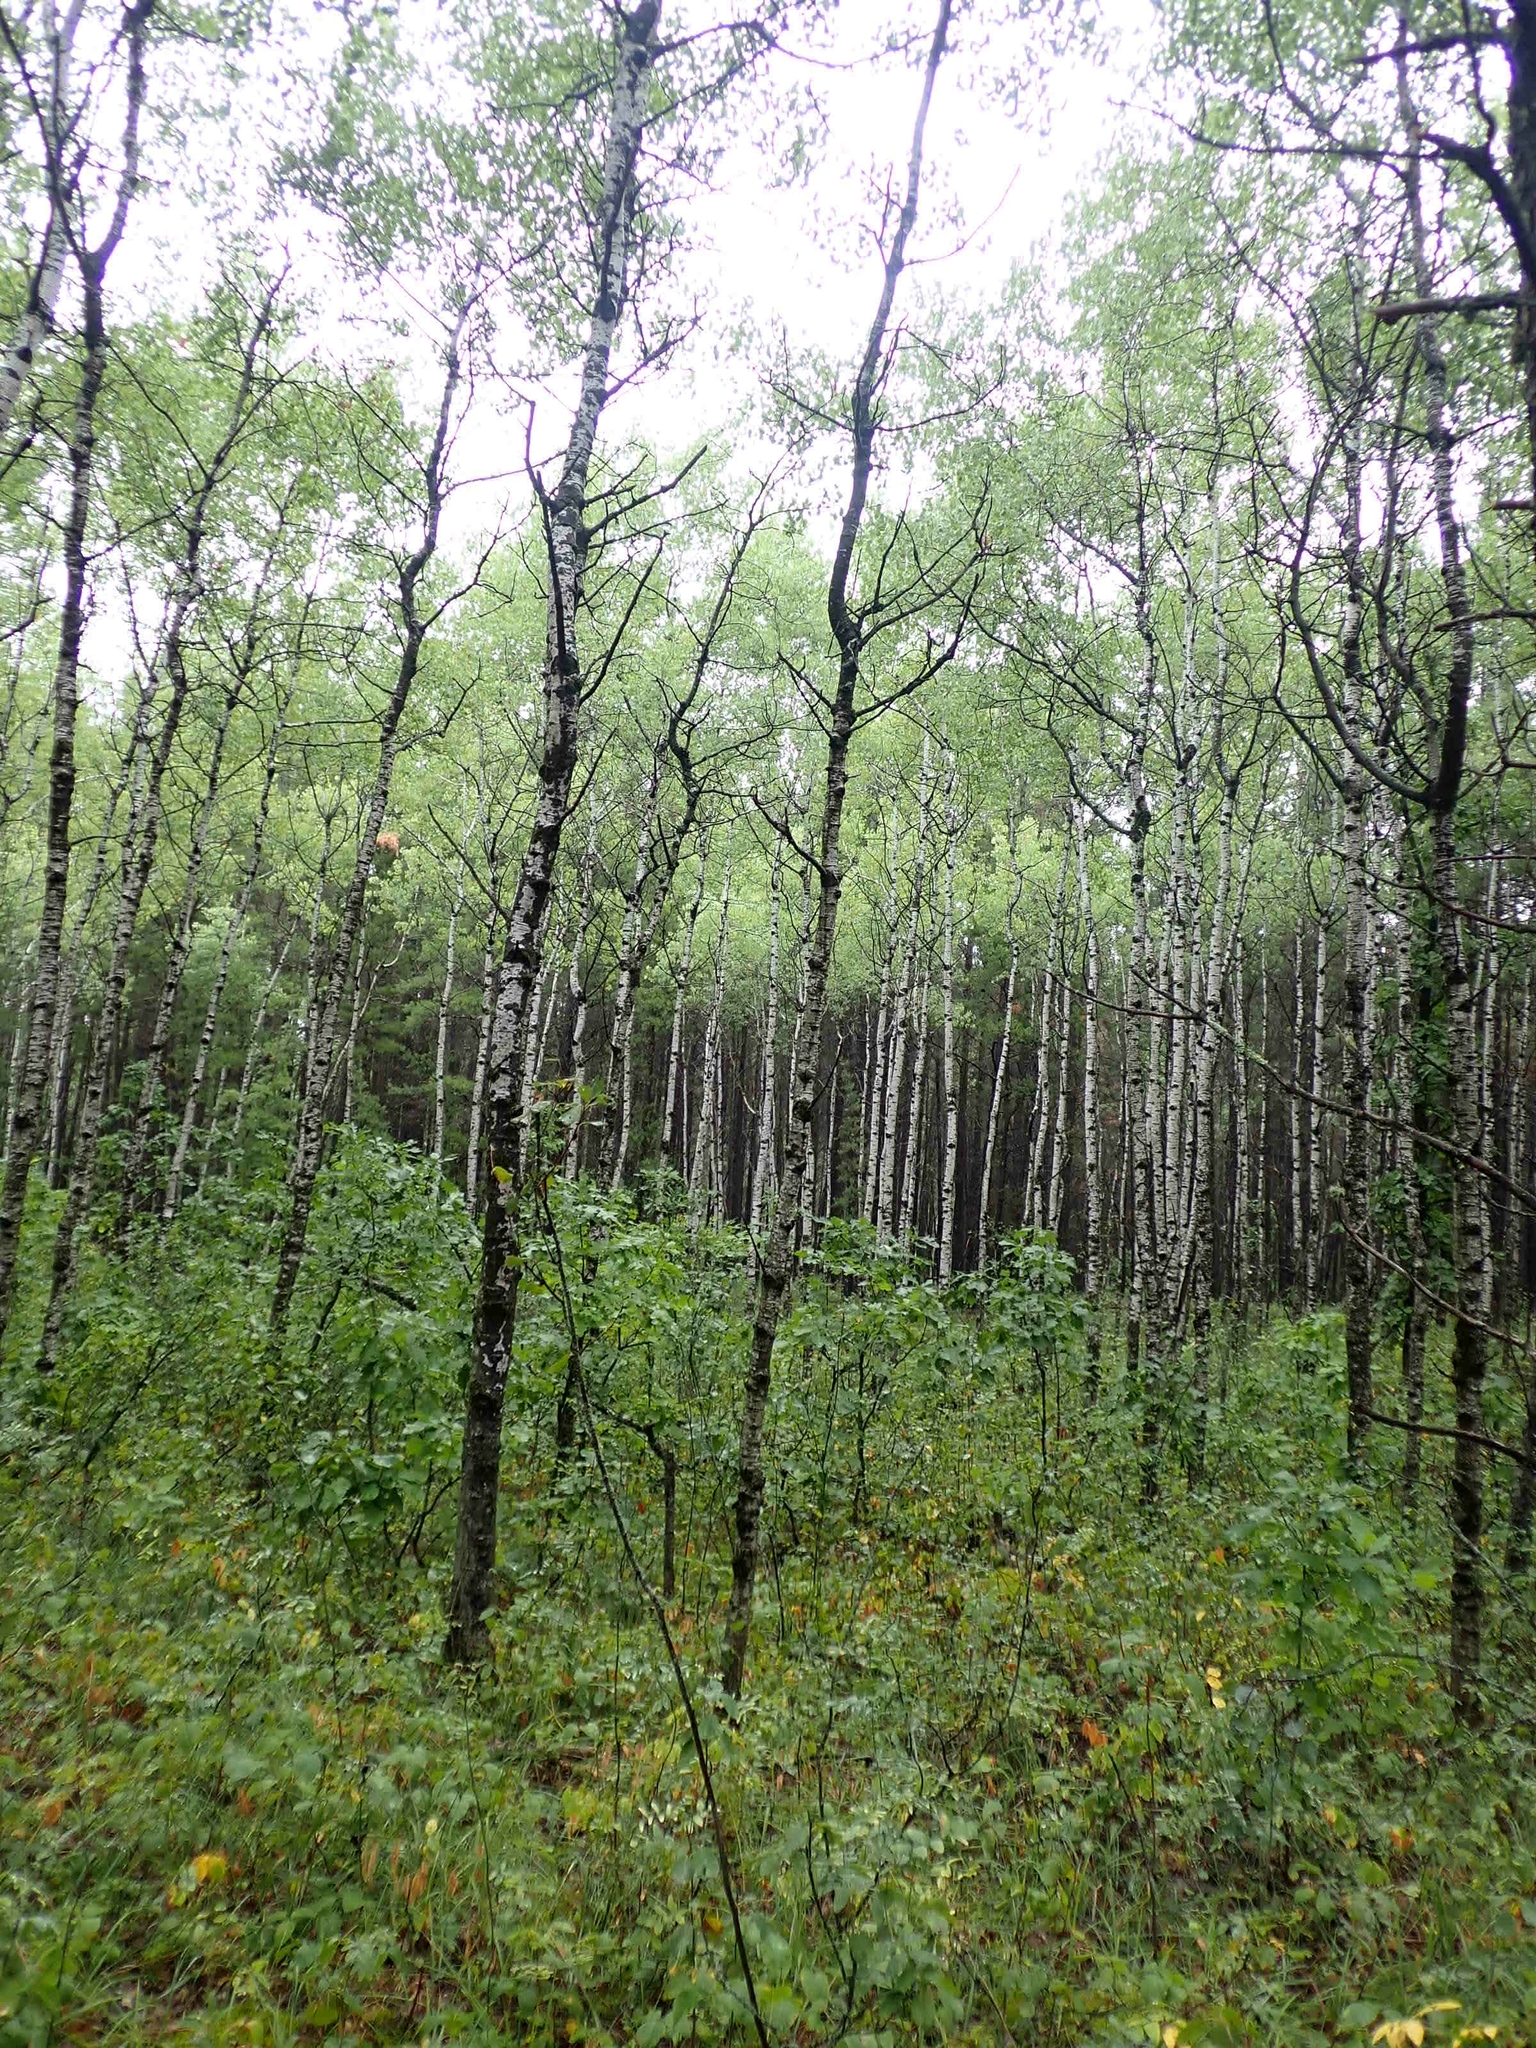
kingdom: Plantae
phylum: Tracheophyta
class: Magnoliopsida
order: Malpighiales
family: Salicaceae
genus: Populus
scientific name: Populus tremuloides
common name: Quaking aspen
